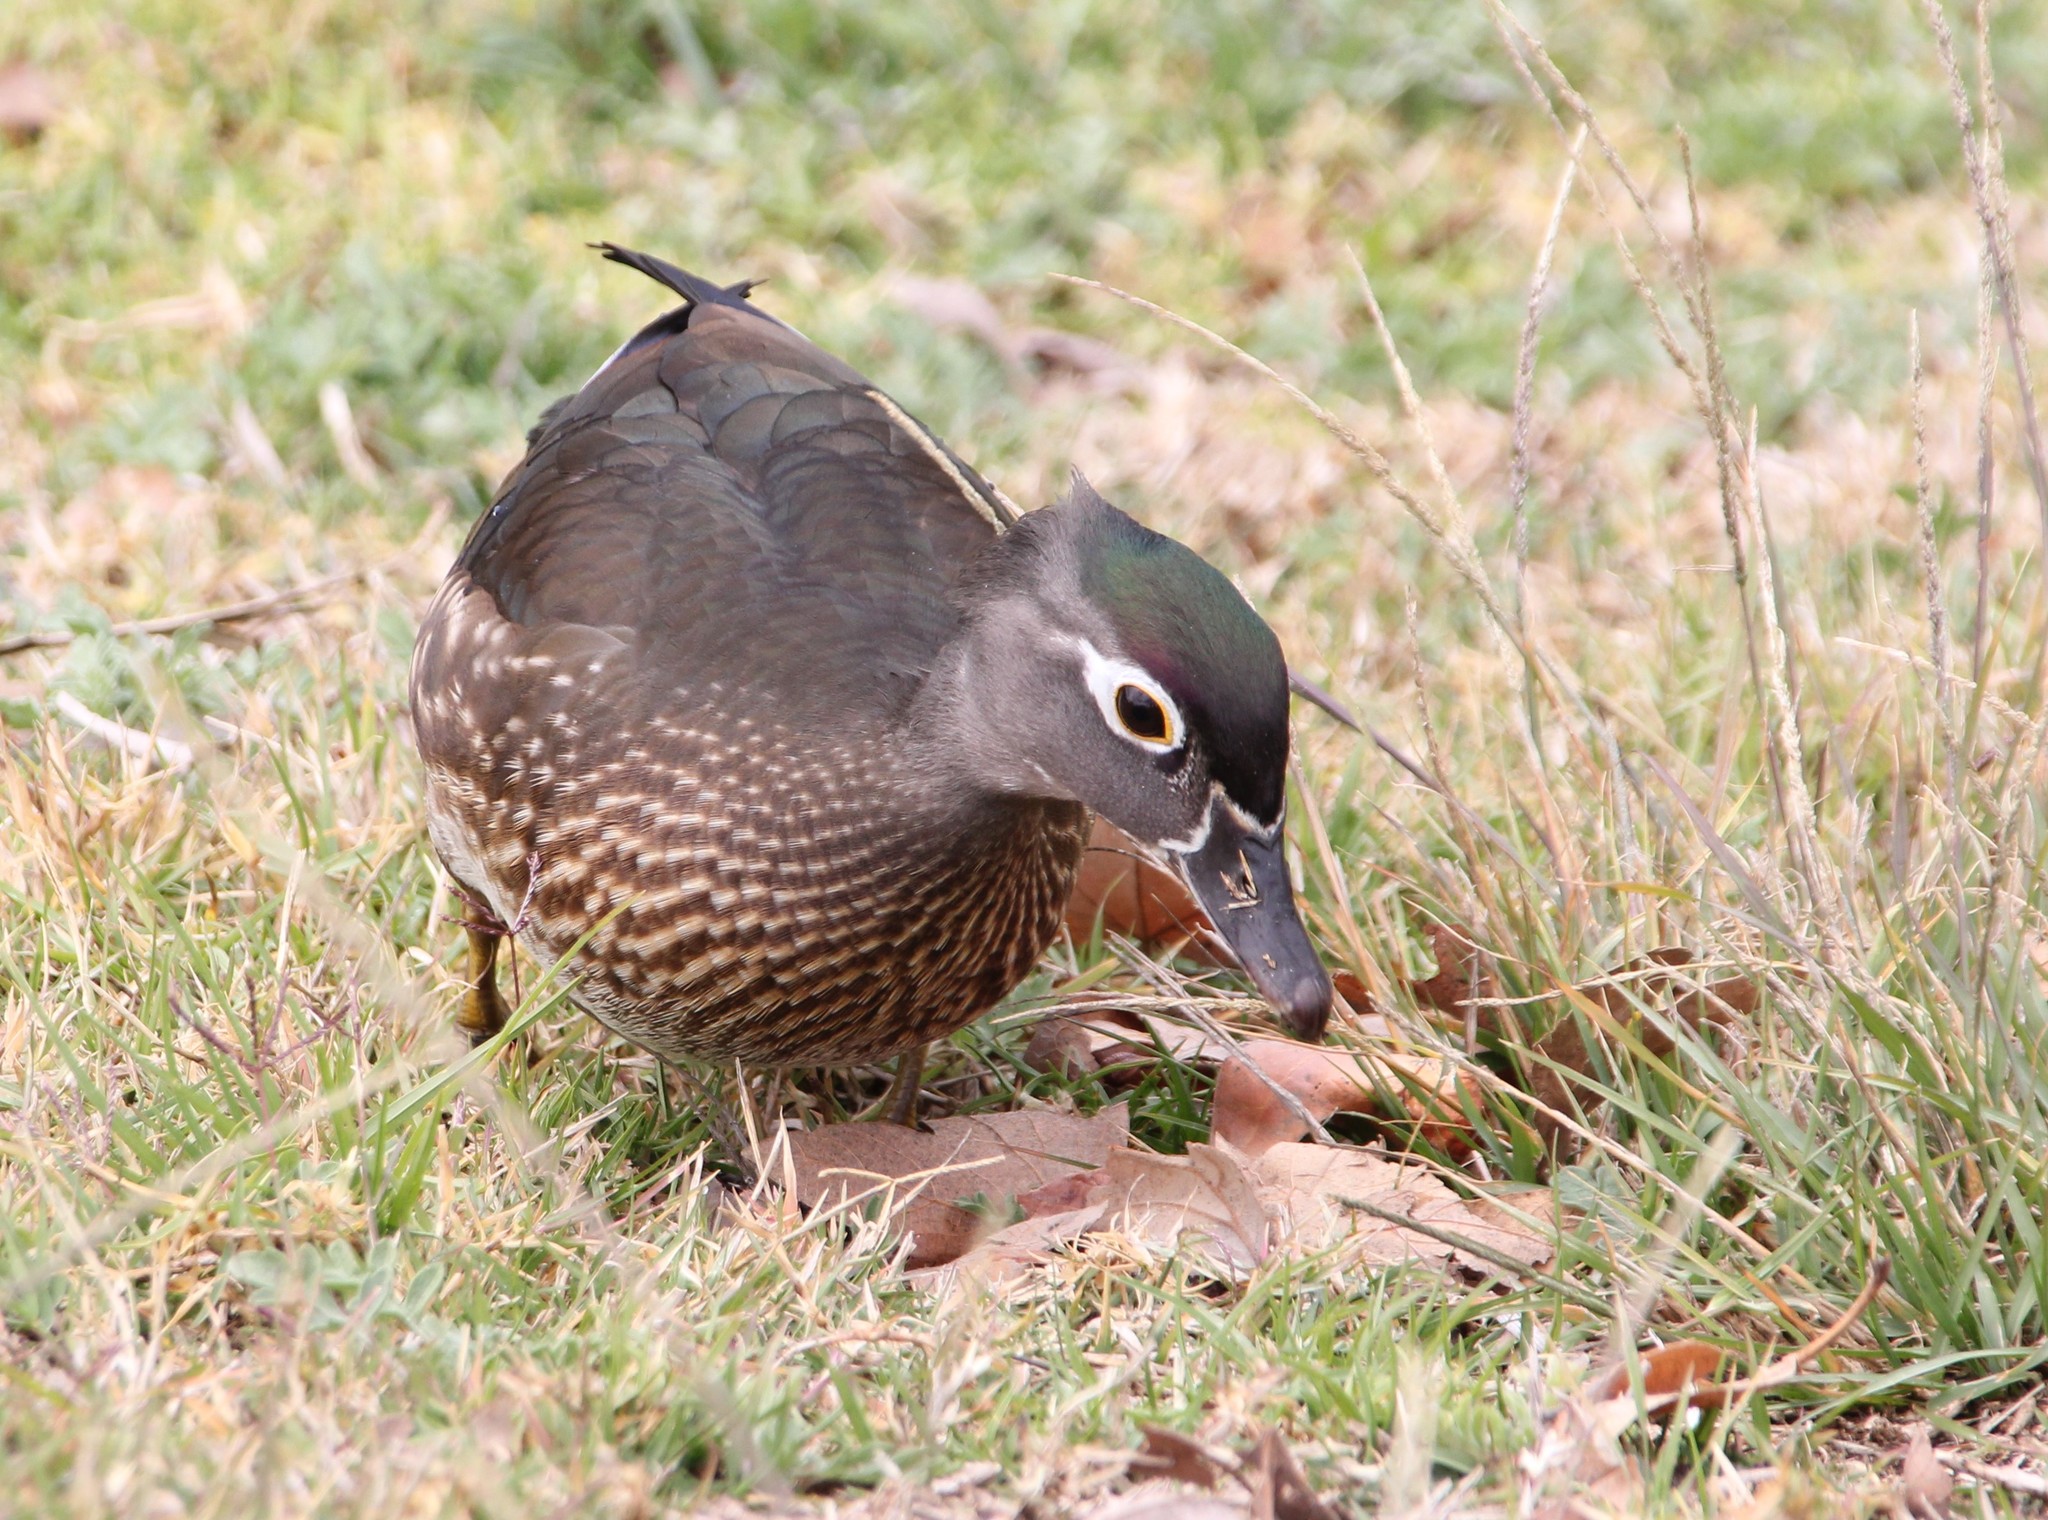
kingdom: Animalia
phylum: Chordata
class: Aves
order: Anseriformes
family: Anatidae
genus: Aix
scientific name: Aix sponsa
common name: Wood duck
